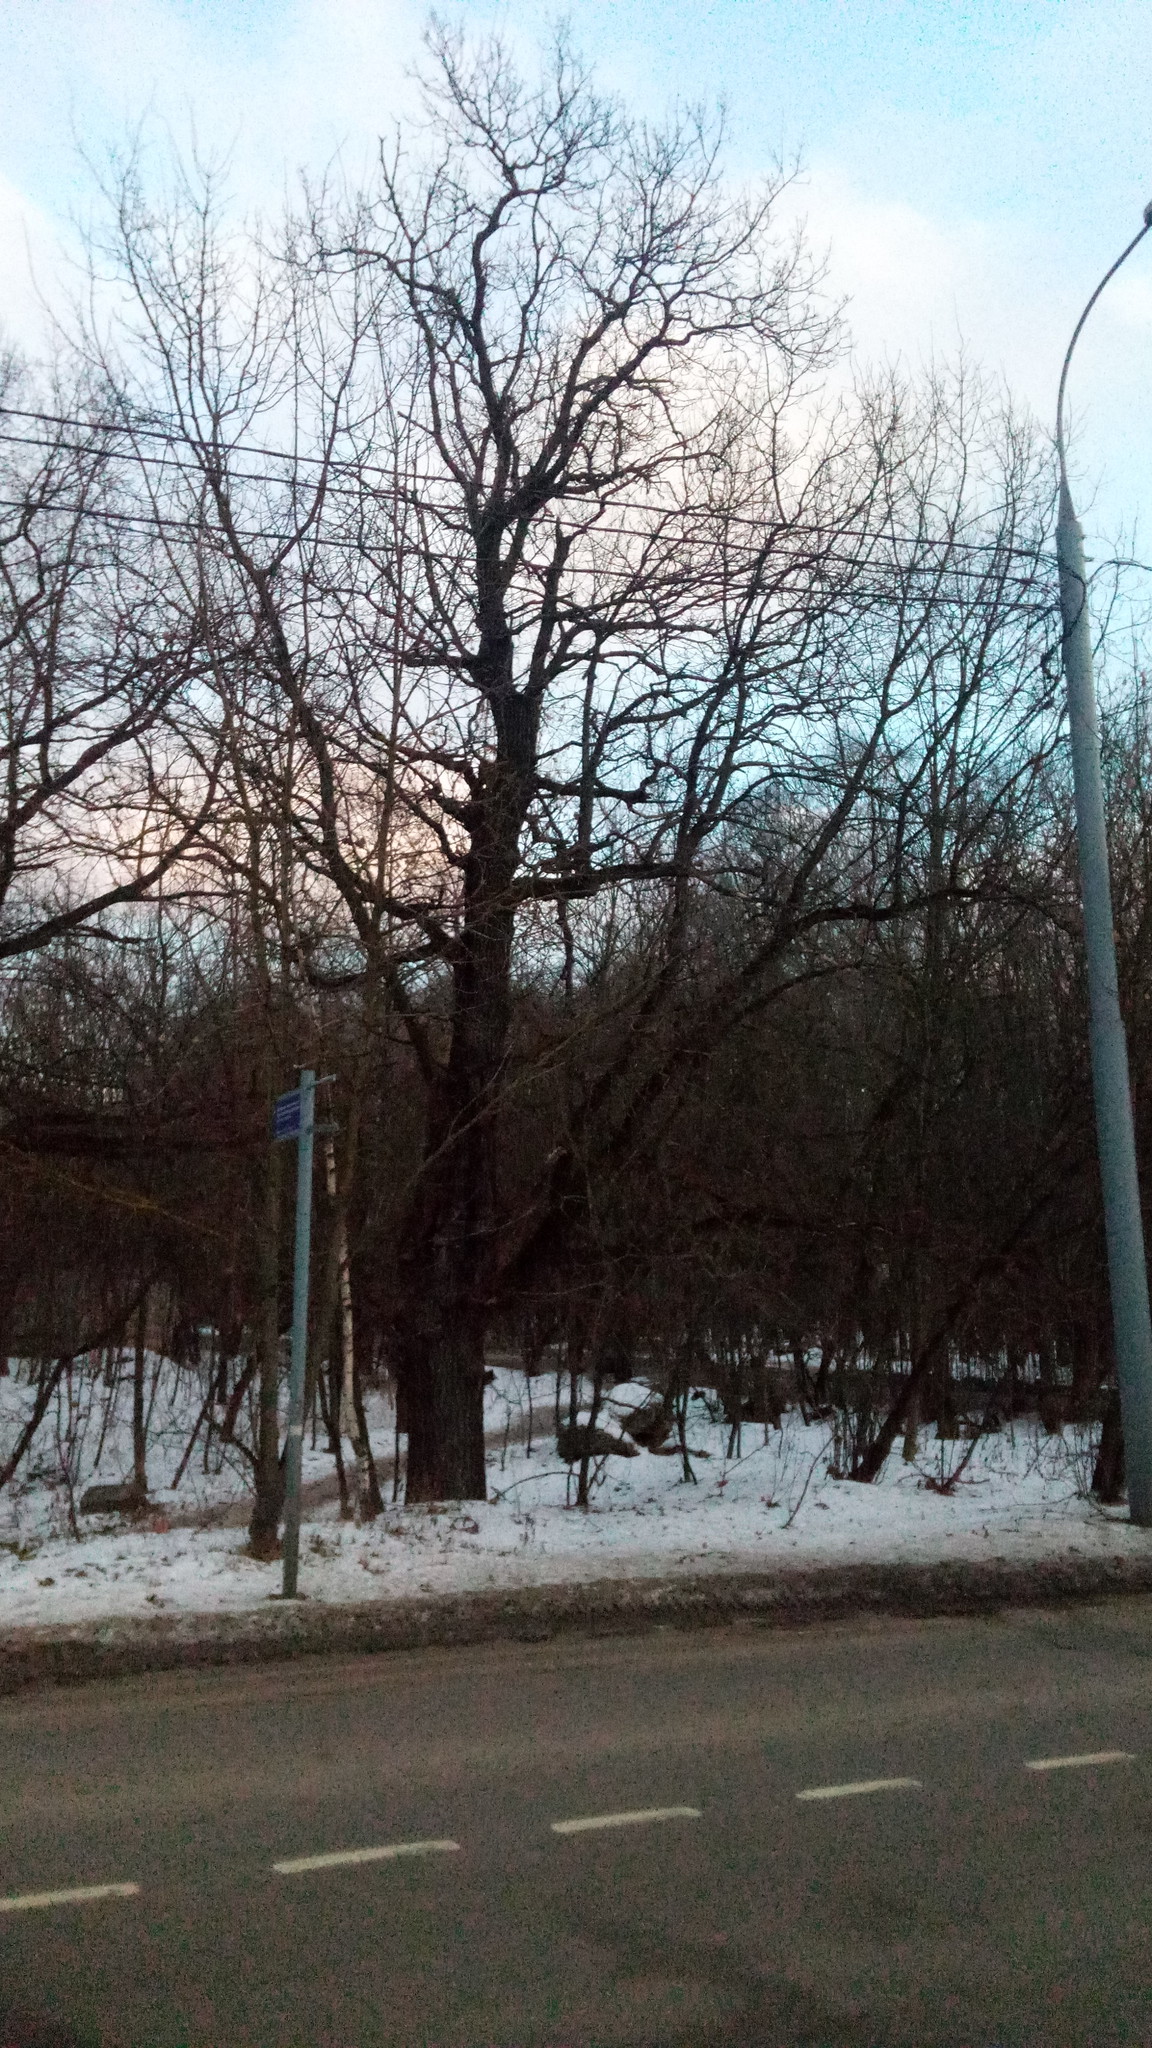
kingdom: Plantae
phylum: Tracheophyta
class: Magnoliopsida
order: Fagales
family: Fagaceae
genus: Quercus
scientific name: Quercus robur
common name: Pedunculate oak
